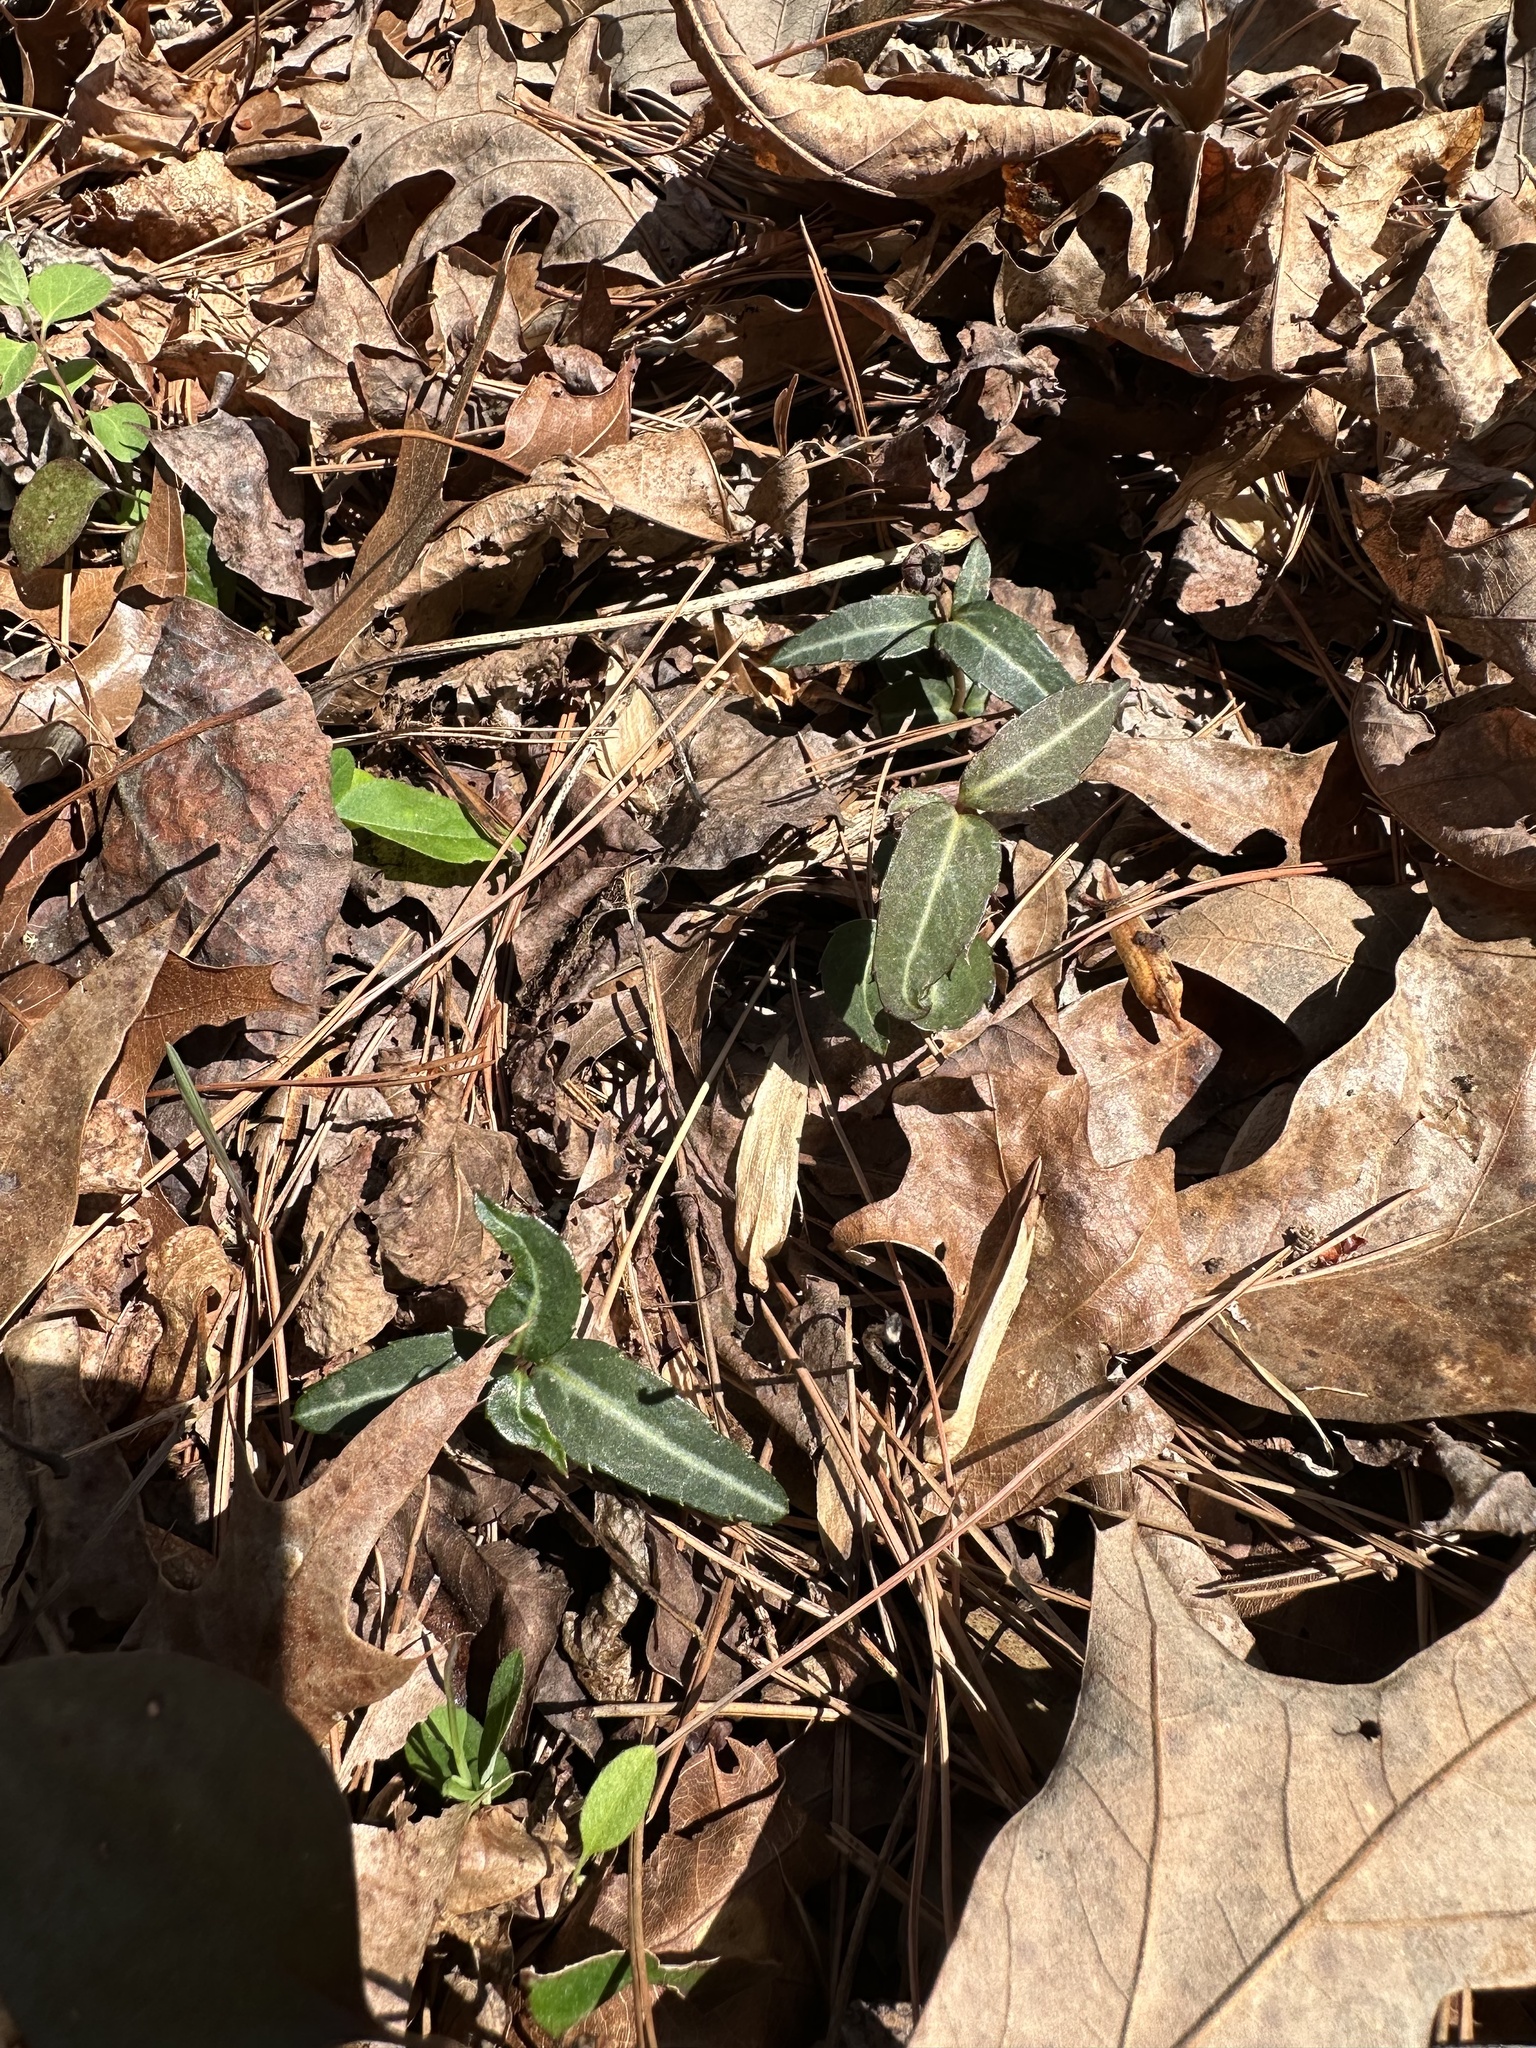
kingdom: Plantae
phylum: Tracheophyta
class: Magnoliopsida
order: Ericales
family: Ericaceae
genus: Chimaphila
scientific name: Chimaphila maculata
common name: Spotted pipsissewa
